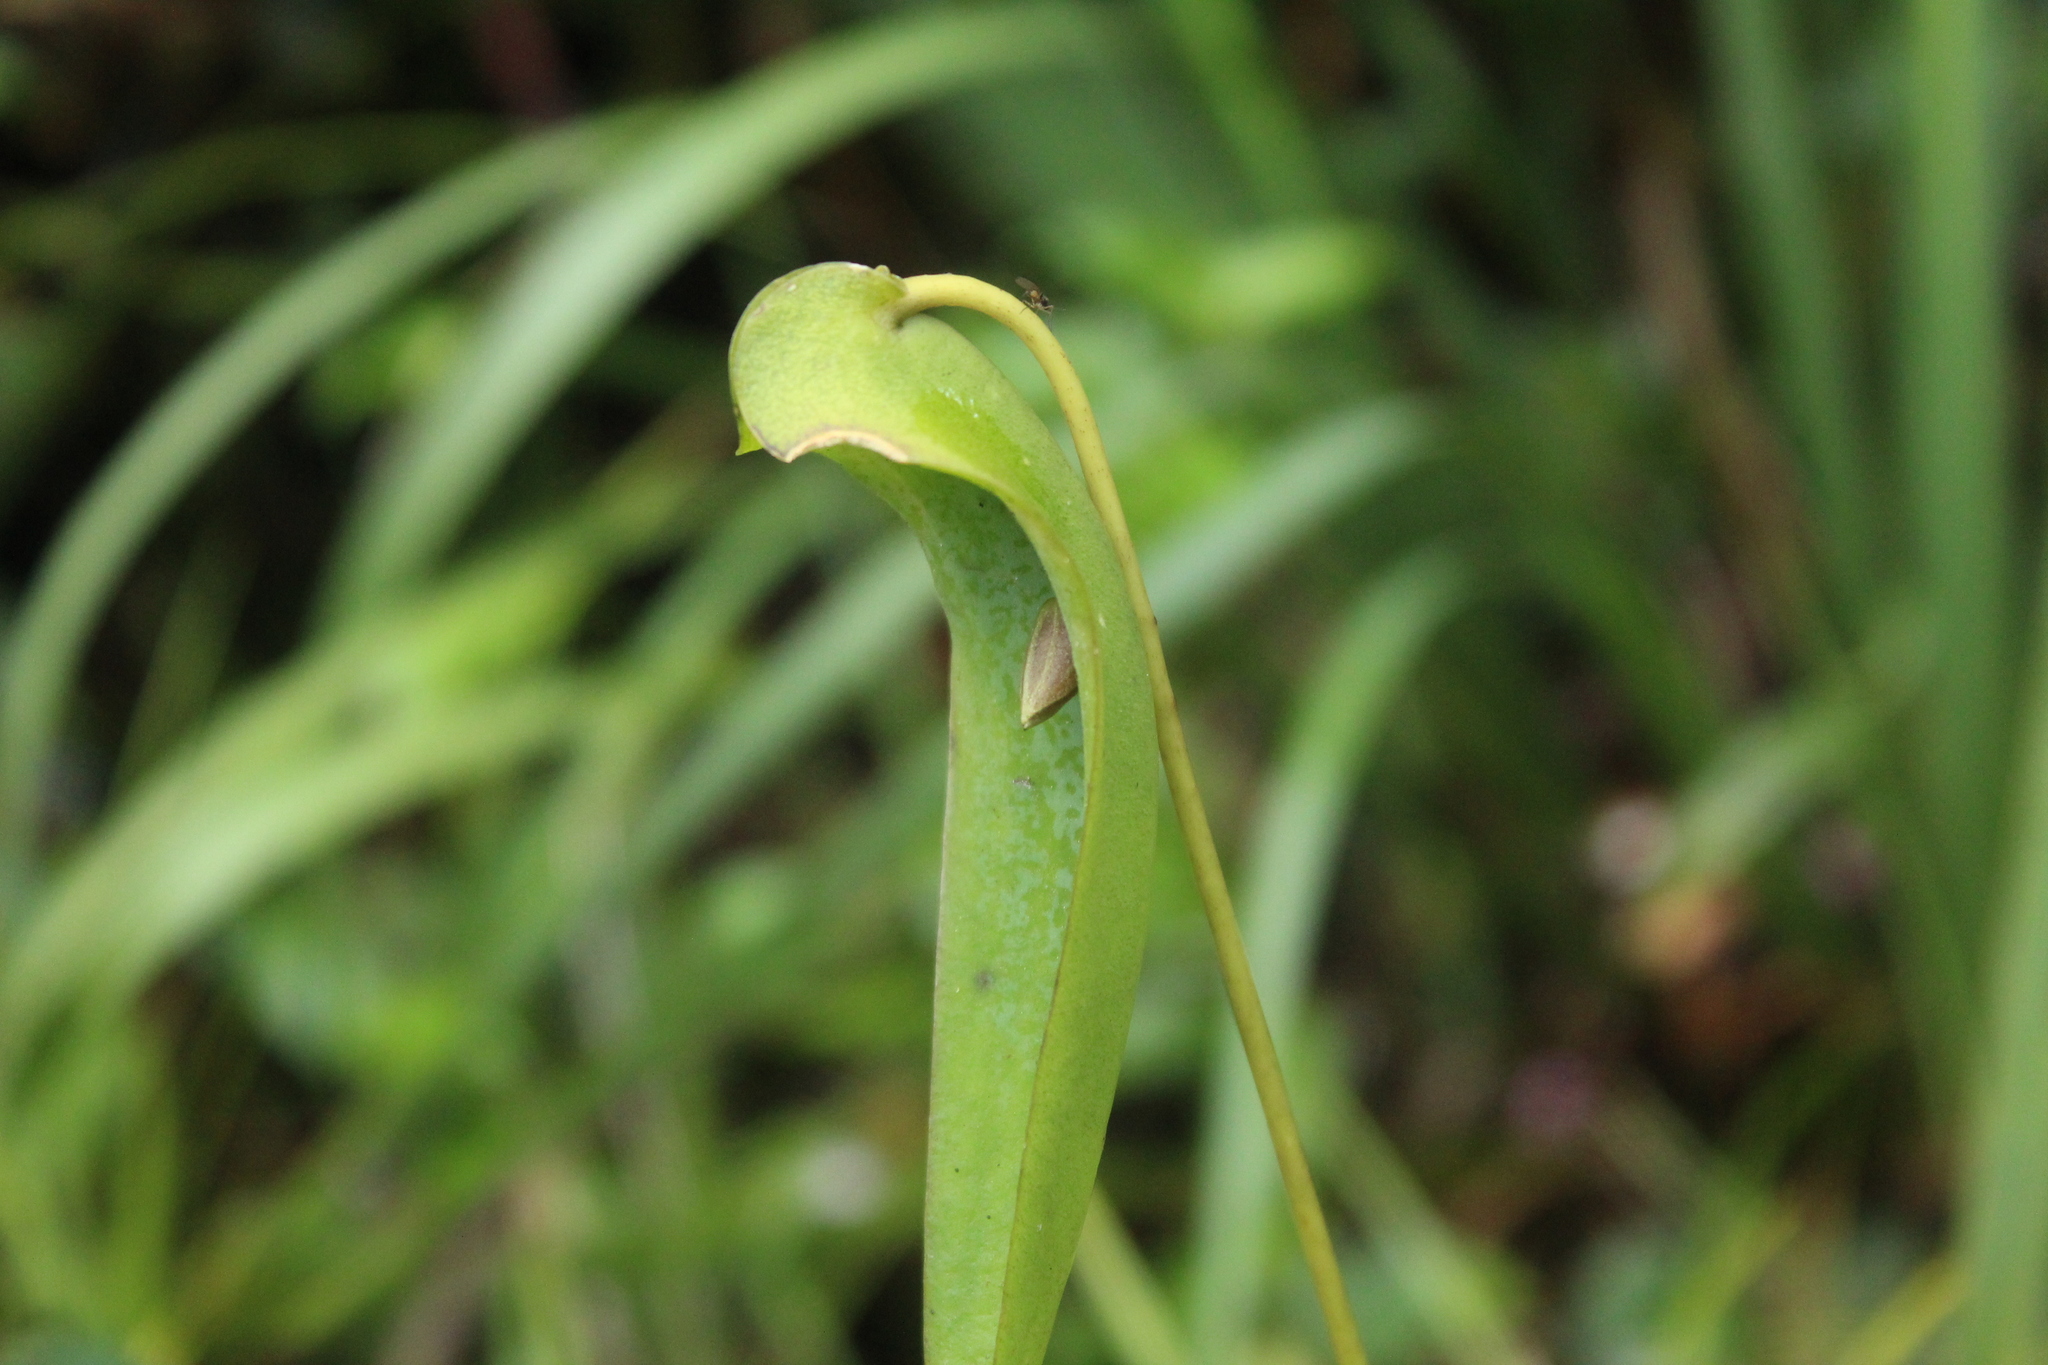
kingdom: Plantae
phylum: Tracheophyta
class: Liliopsida
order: Asparagales
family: Orchidaceae
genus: Pleurothallis
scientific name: Pleurothallis lilijae
